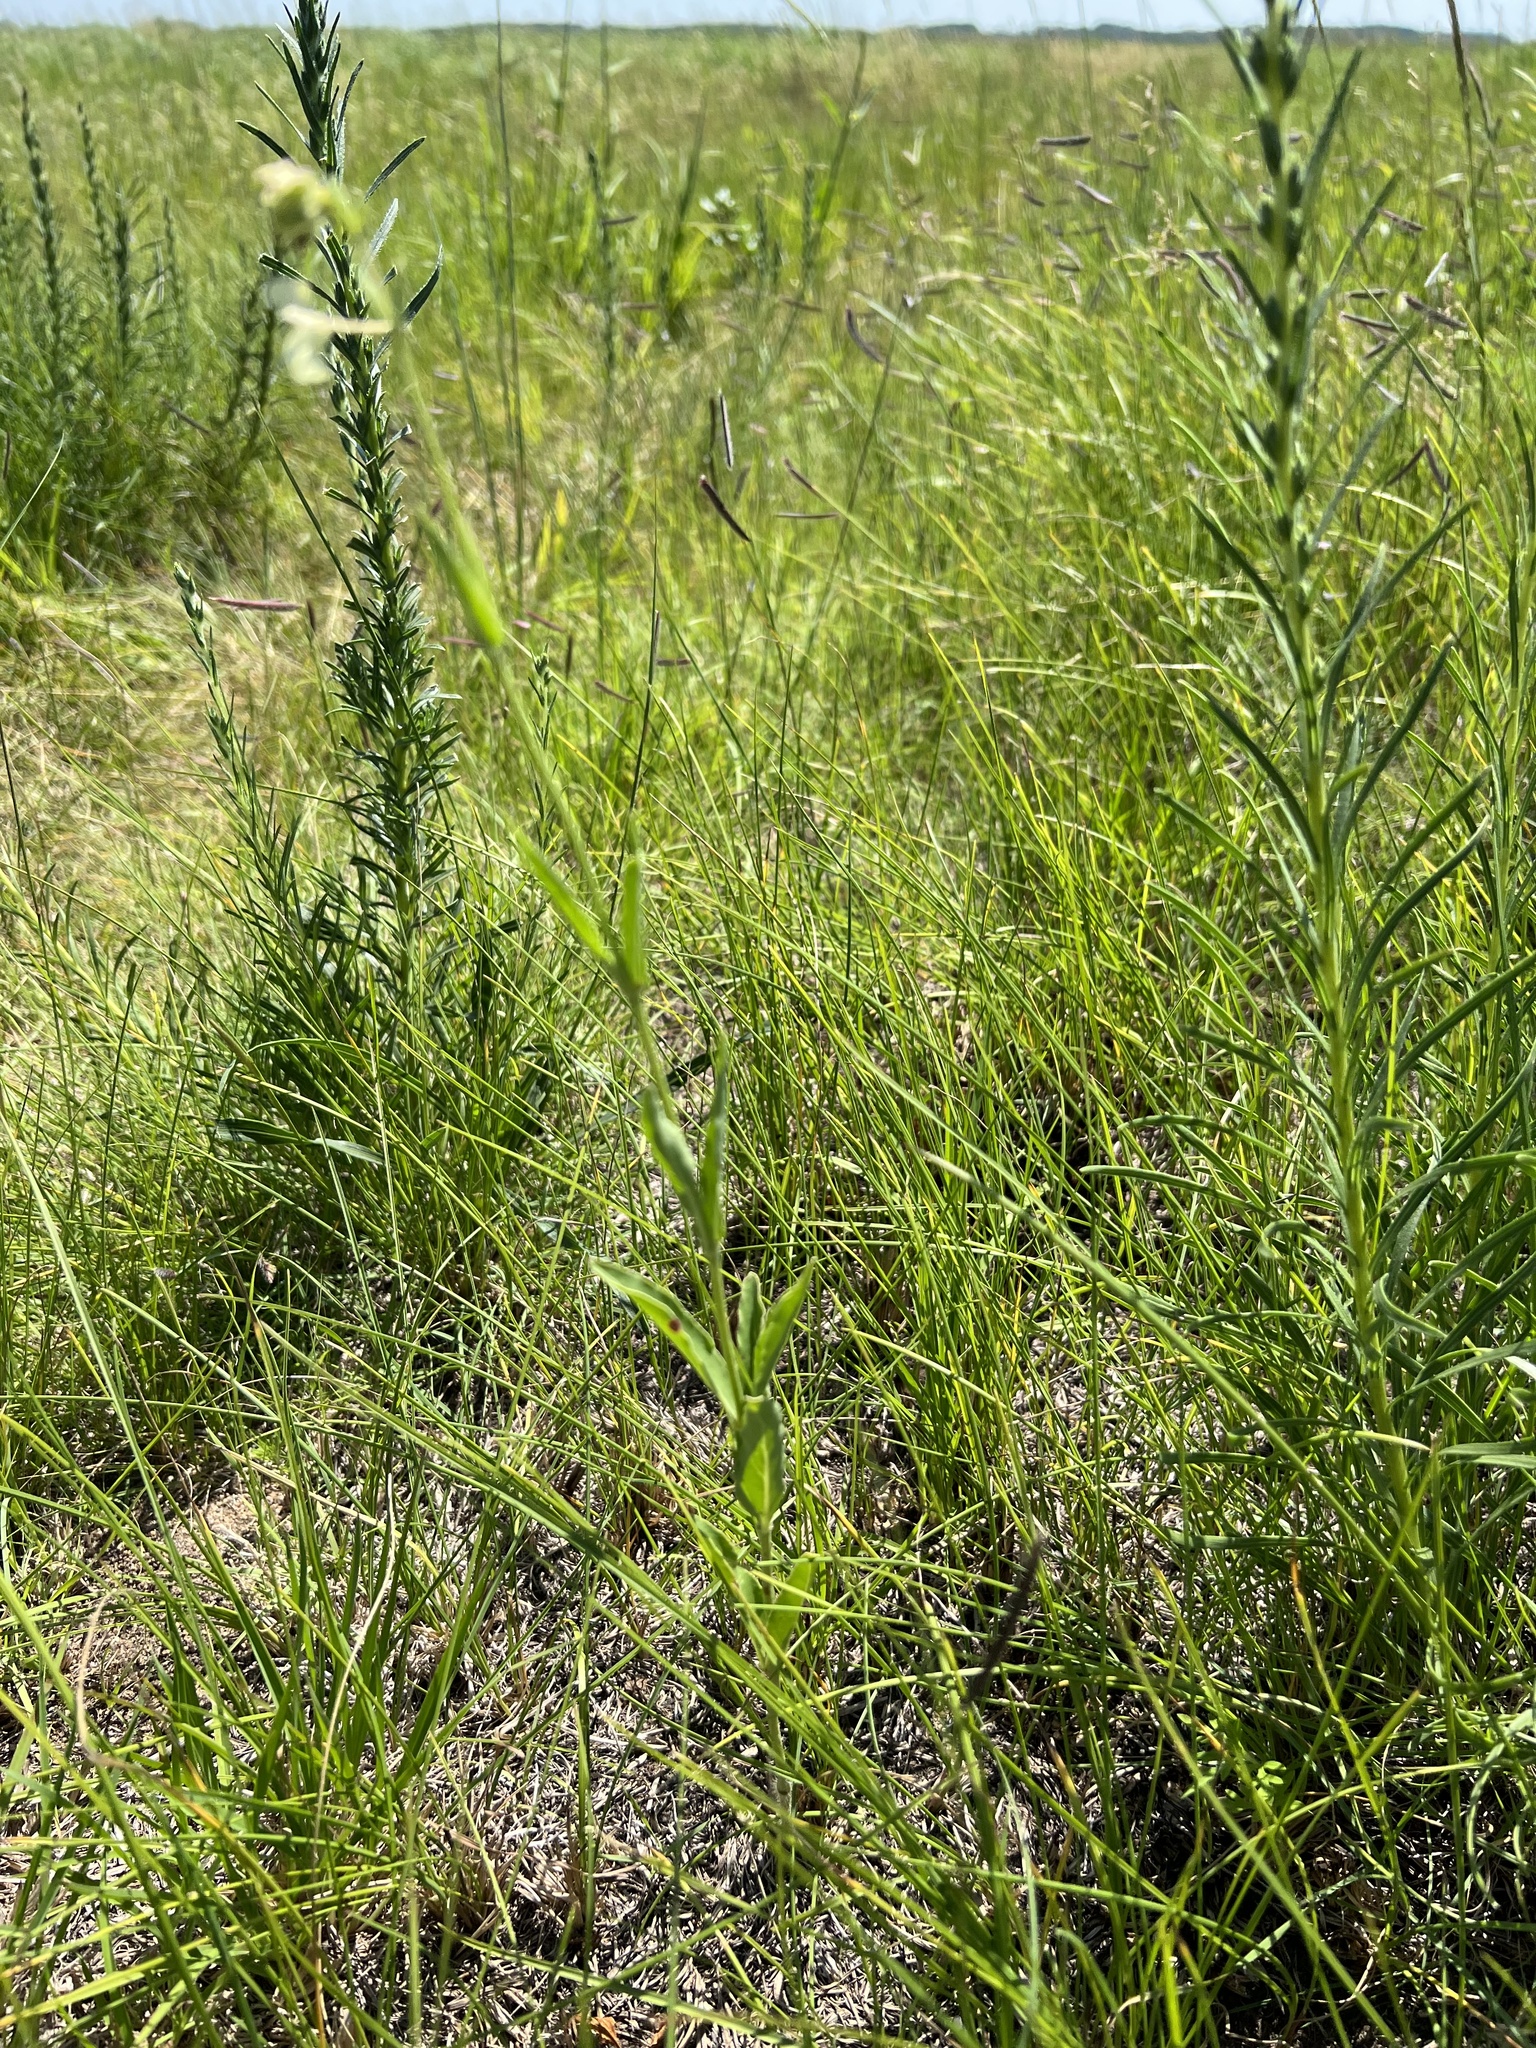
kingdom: Plantae
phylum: Tracheophyta
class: Magnoliopsida
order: Caryophyllales
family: Nyctaginaceae
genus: Mirabilis
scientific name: Mirabilis albida
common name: Hairy four-o'clock
